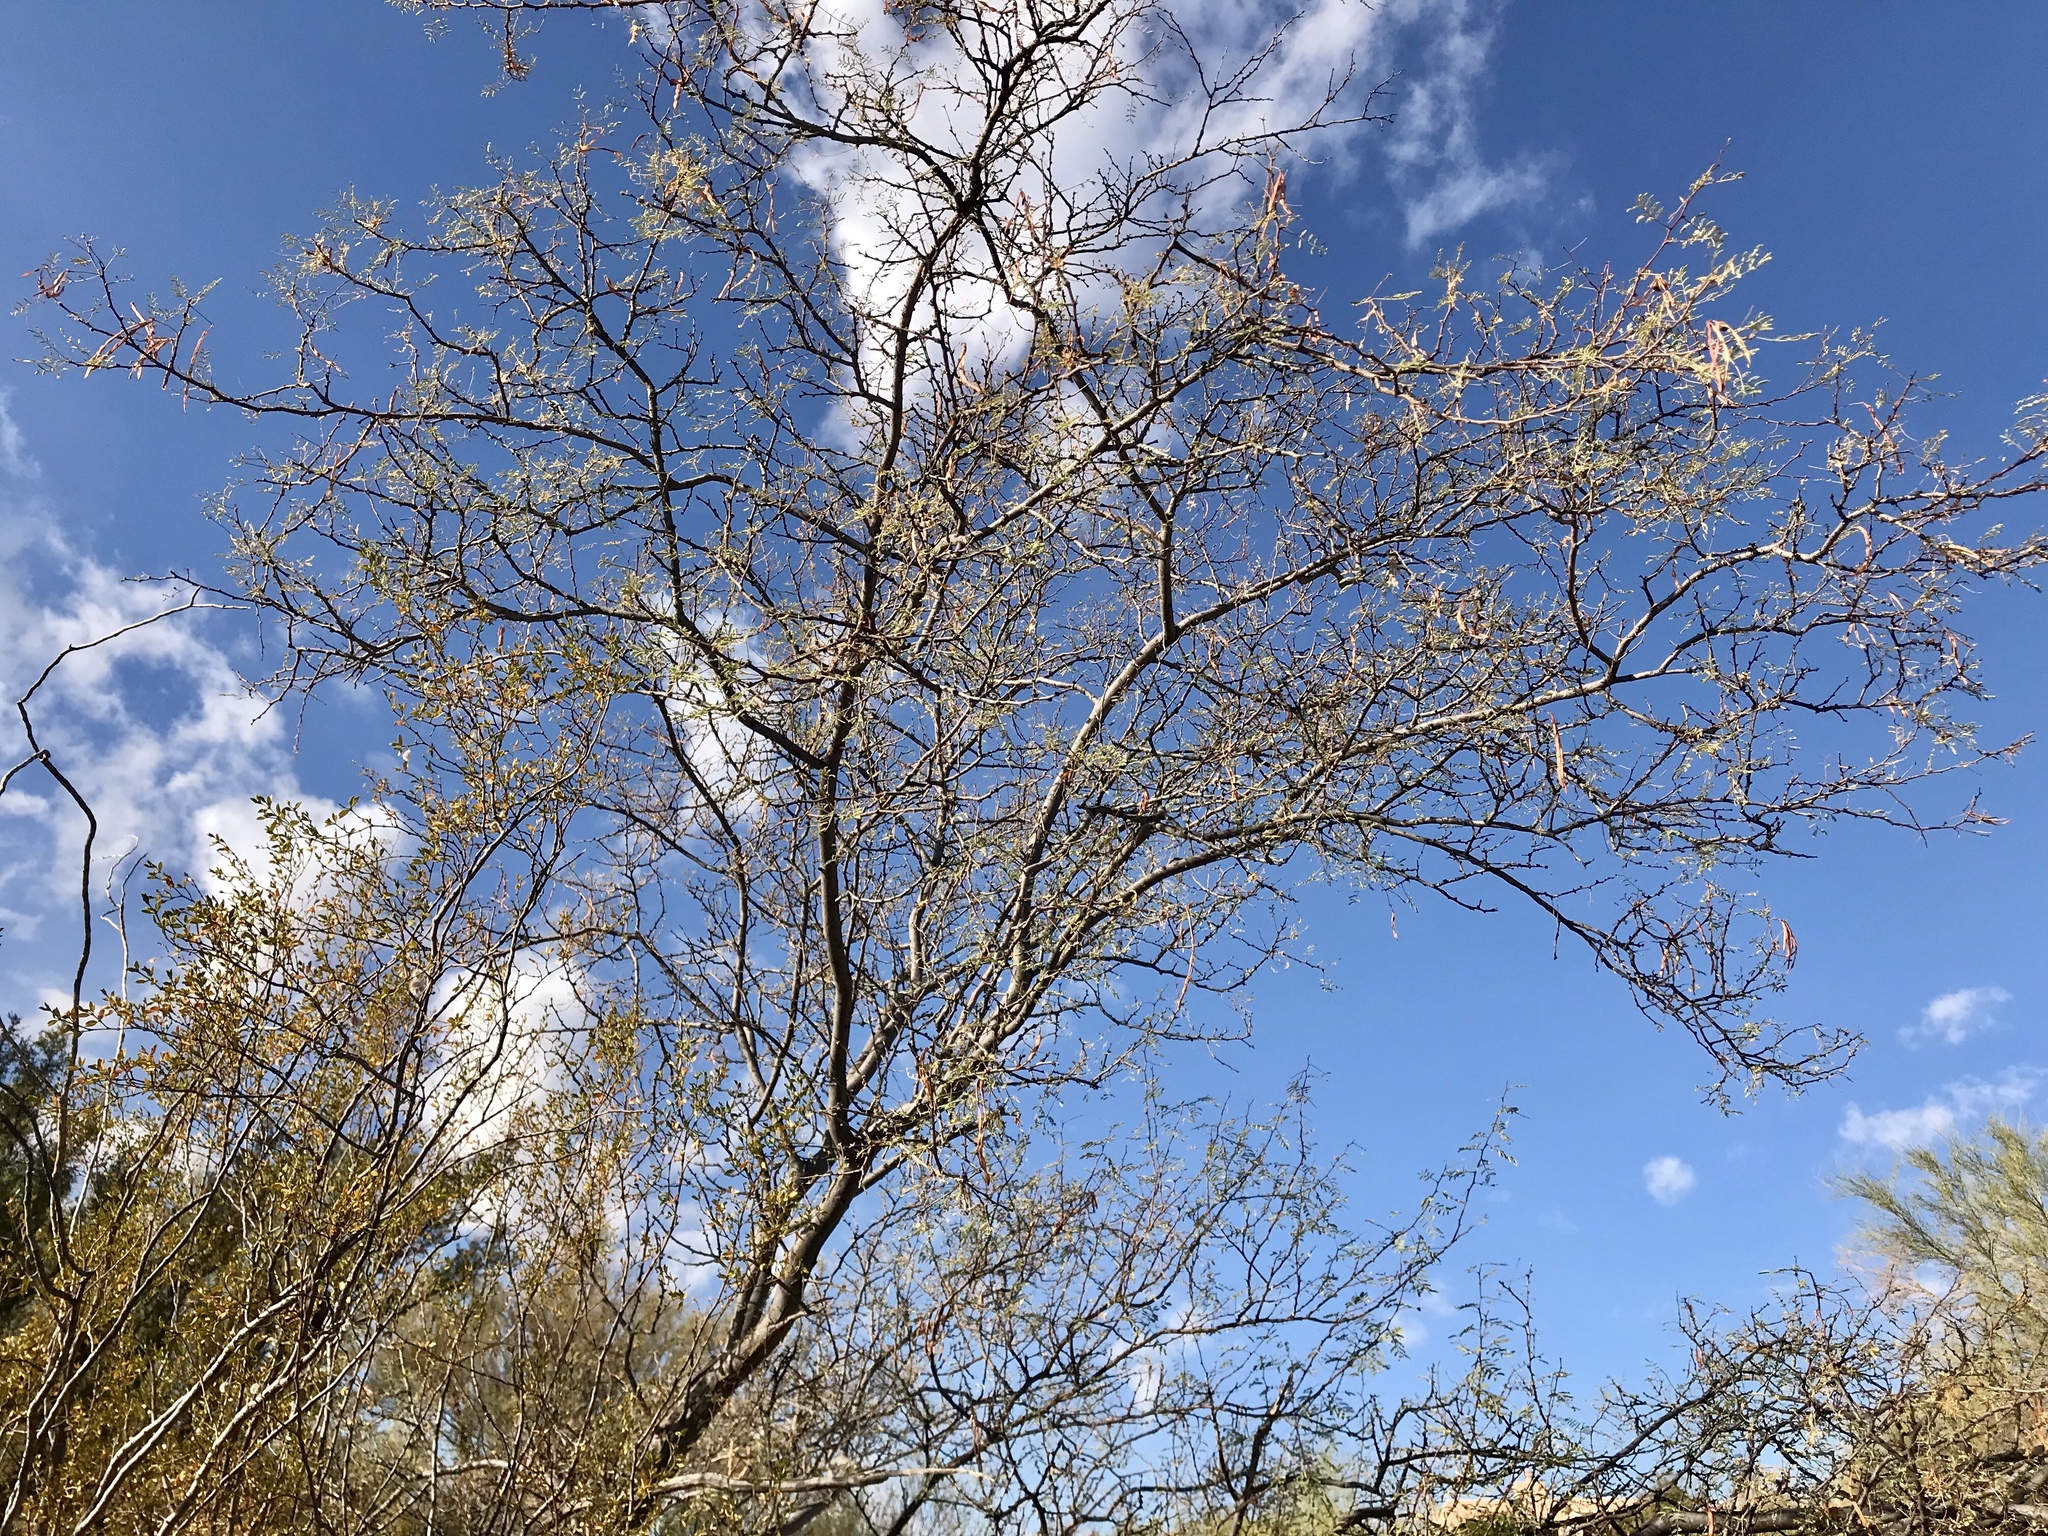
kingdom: Plantae
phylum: Tracheophyta
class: Magnoliopsida
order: Fabales
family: Fabaceae
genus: Vachellia
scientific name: Vachellia constricta
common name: Mescat acacia
